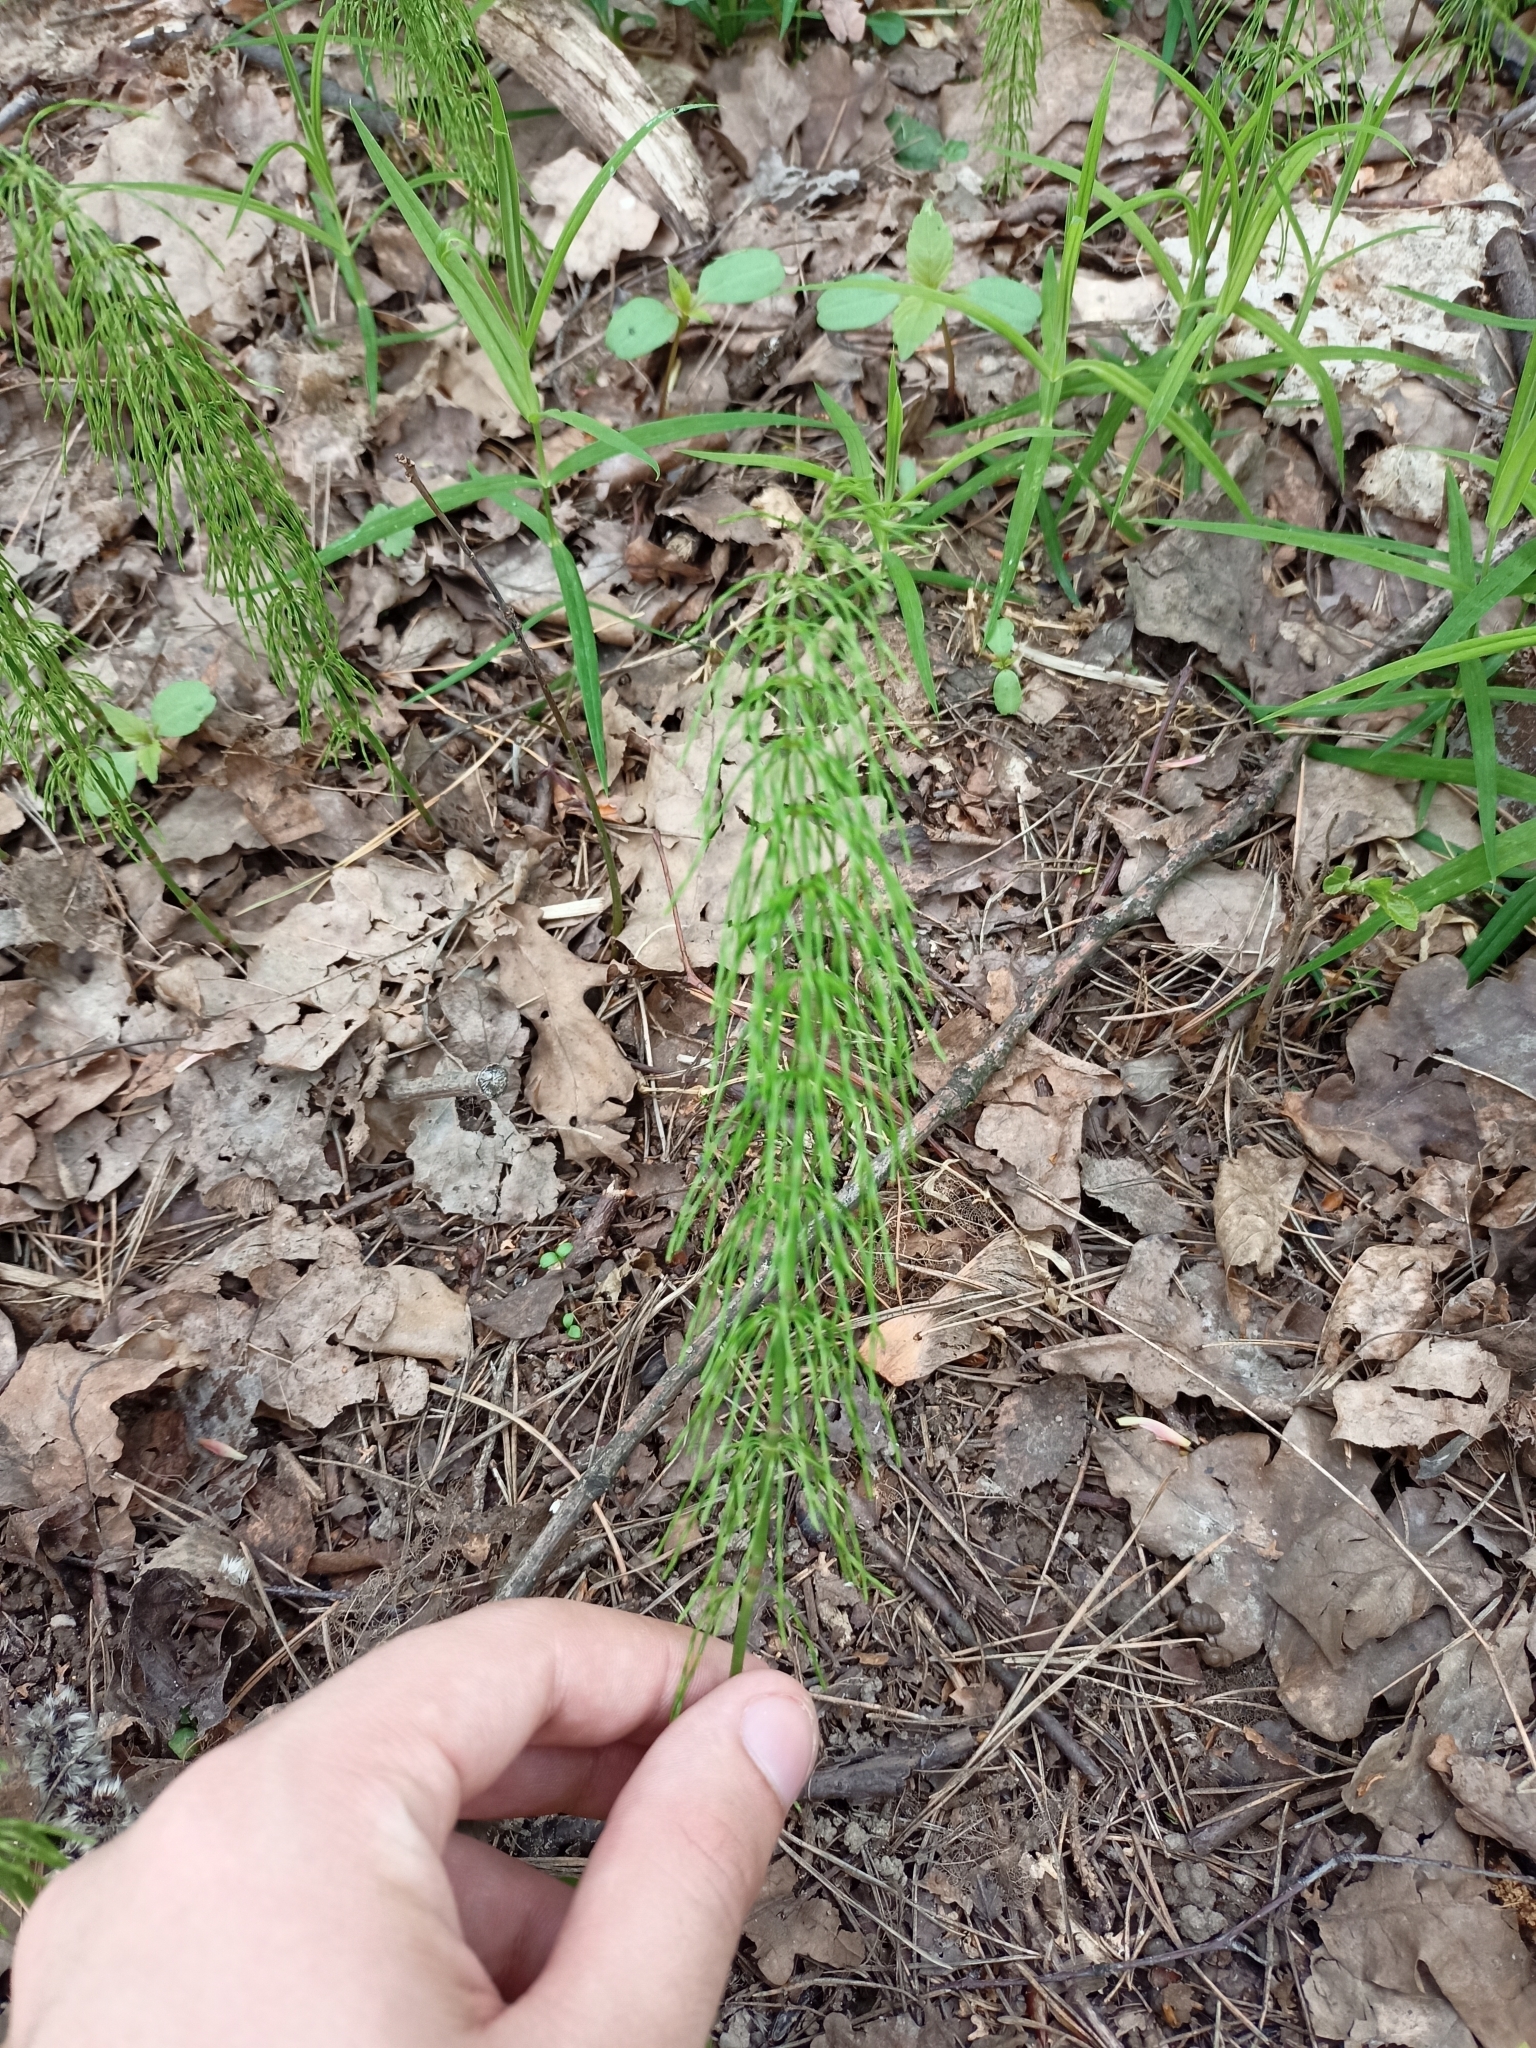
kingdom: Plantae
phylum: Tracheophyta
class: Polypodiopsida
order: Equisetales
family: Equisetaceae
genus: Equisetum
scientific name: Equisetum pratense
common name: Meadow horsetail
